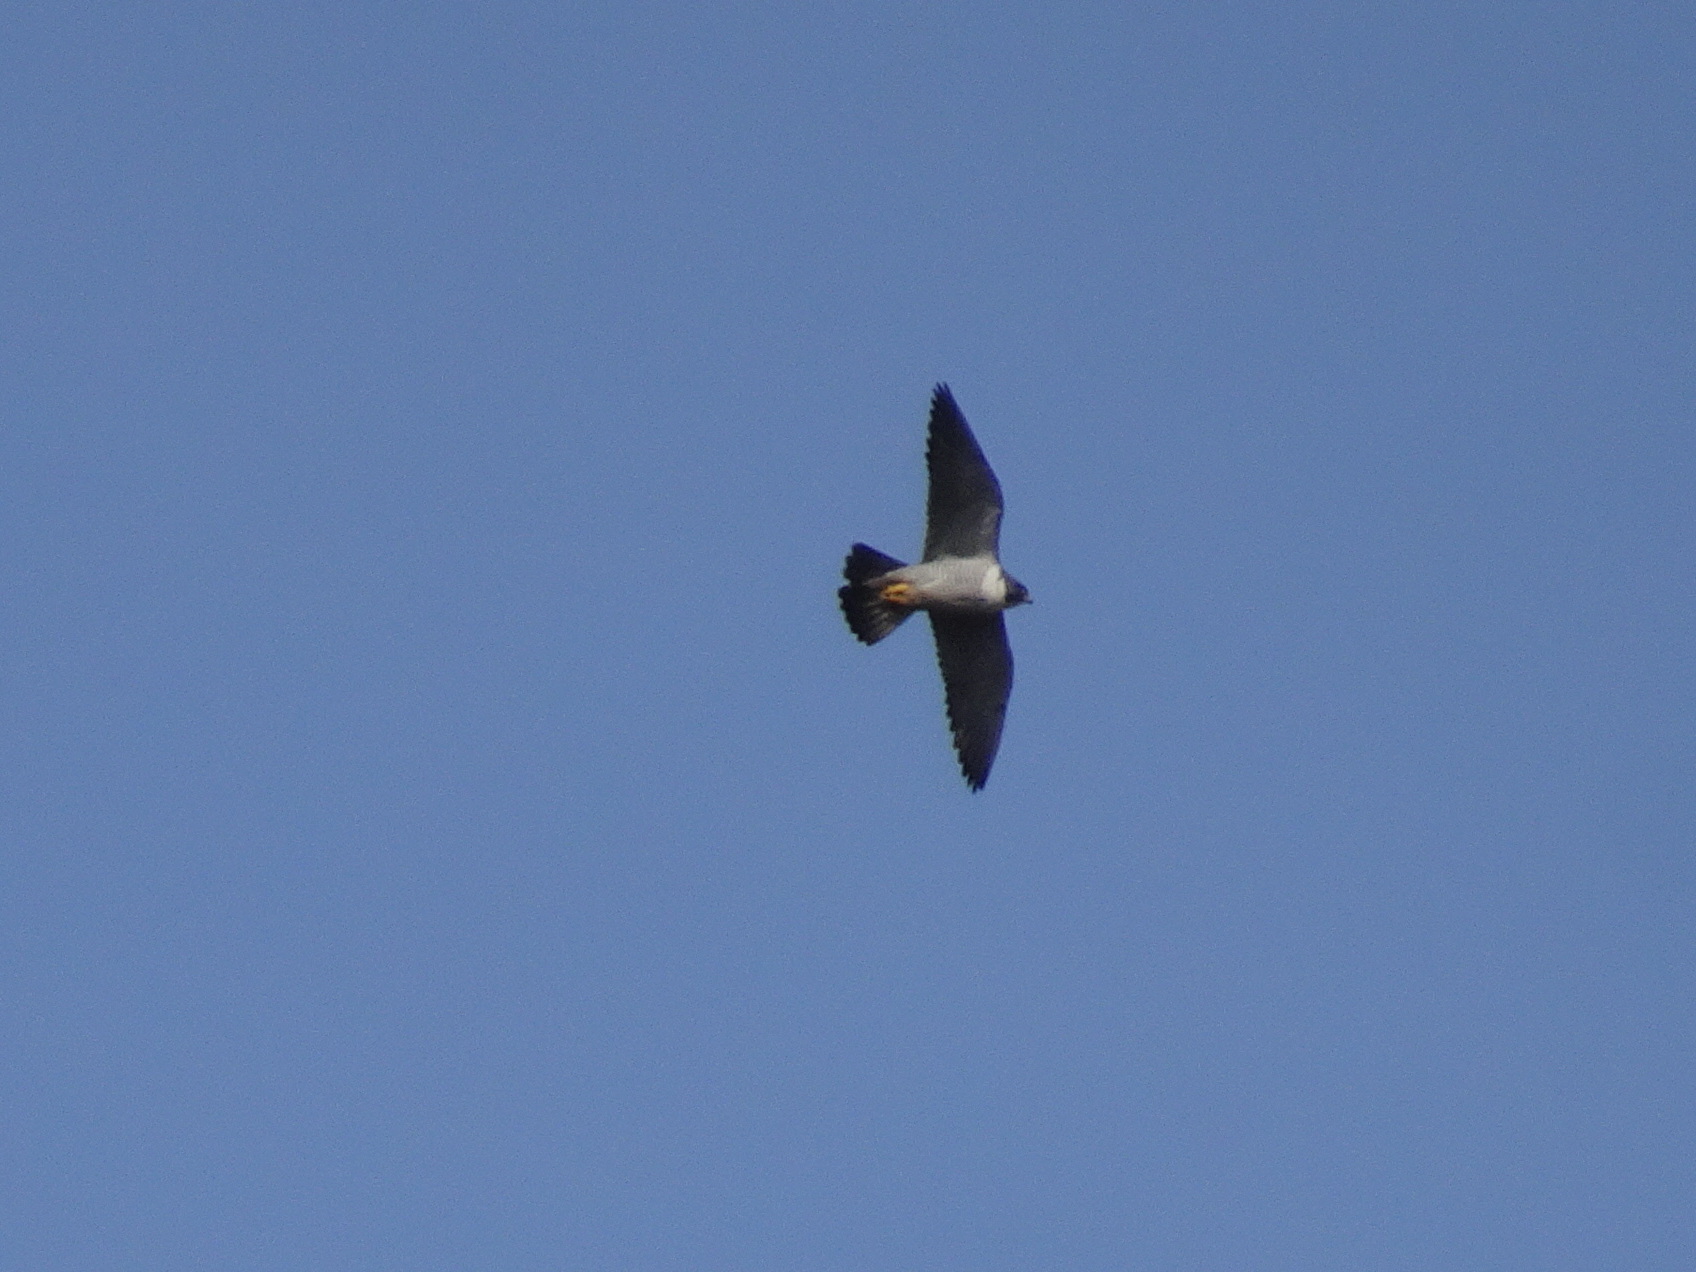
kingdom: Animalia
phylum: Chordata
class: Aves
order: Falconiformes
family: Falconidae
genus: Falco
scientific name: Falco peregrinus
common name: Peregrine falcon
